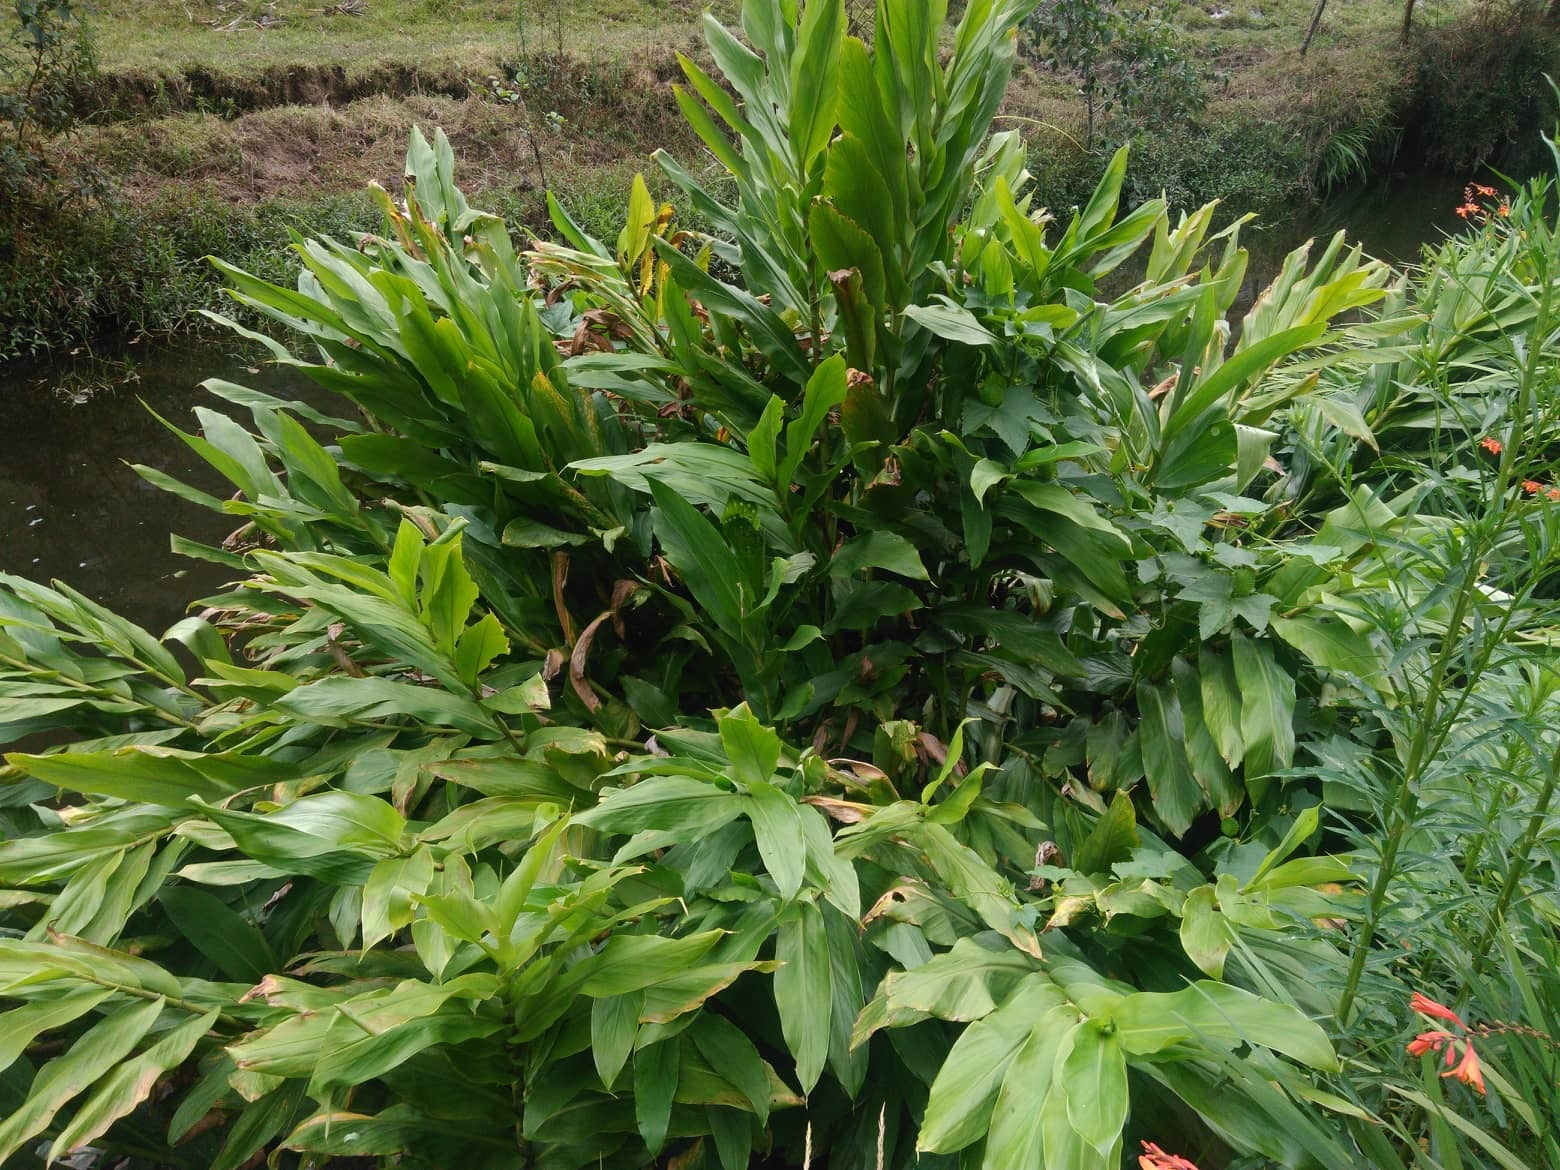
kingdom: Plantae
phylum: Tracheophyta
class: Liliopsida
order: Zingiberales
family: Zingiberaceae
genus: Hedychium
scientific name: Hedychium coronarium
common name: White garland-lily
